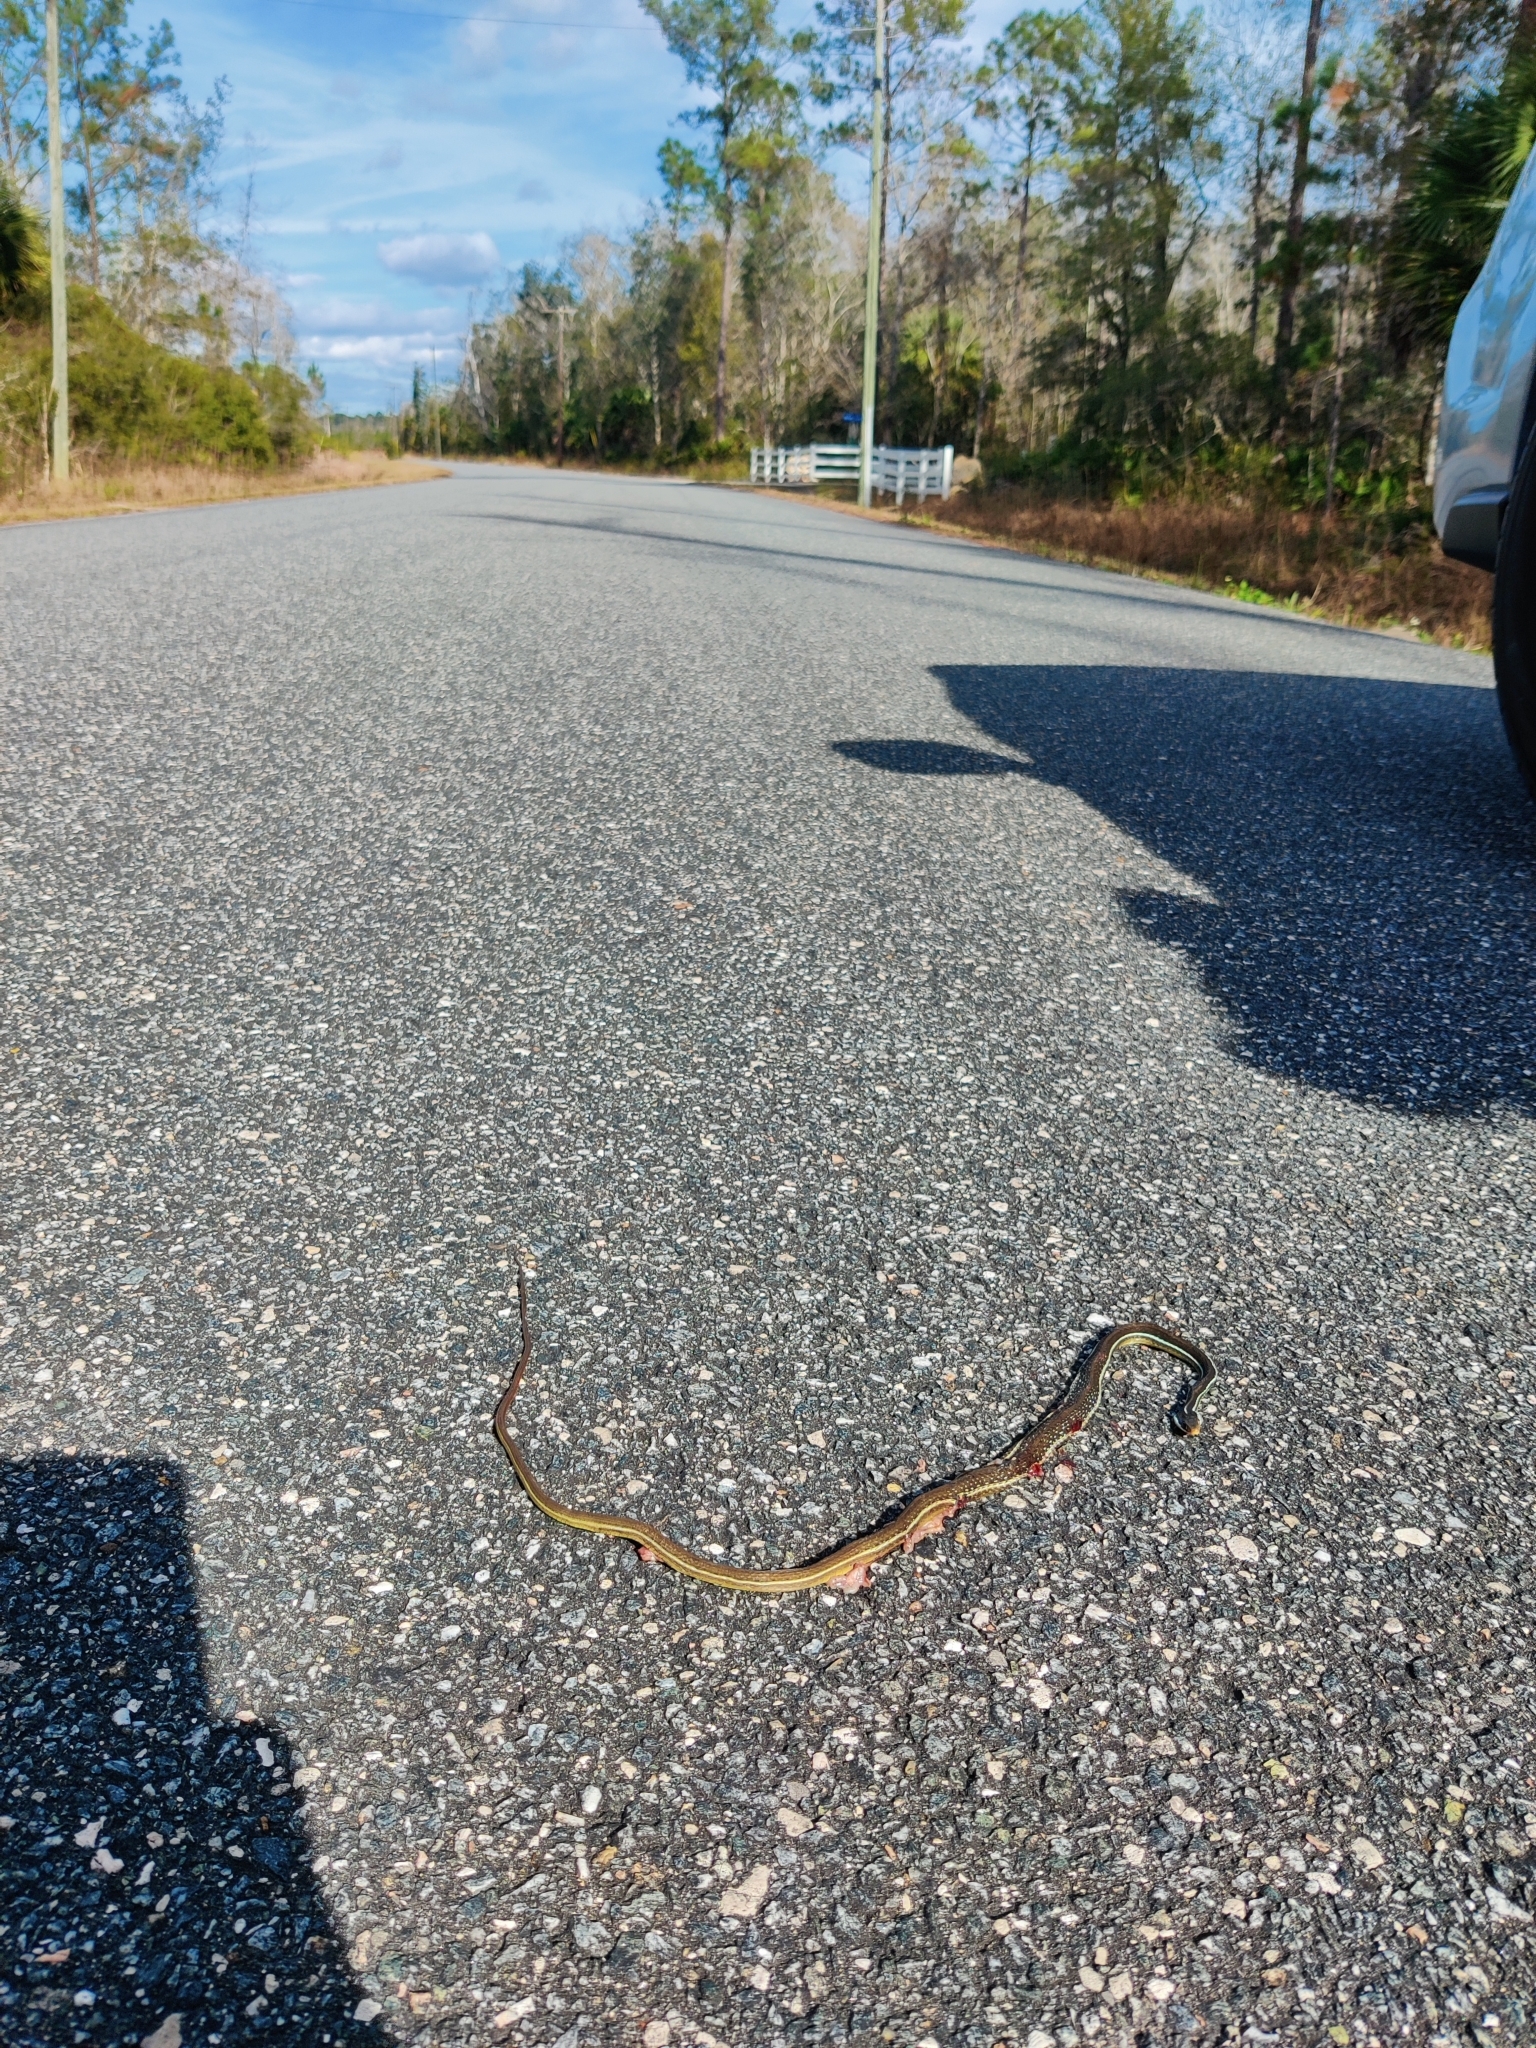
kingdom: Animalia
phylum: Chordata
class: Squamata
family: Colubridae
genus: Thamnophis
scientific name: Thamnophis saurita
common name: Eastern ribbonsnake
